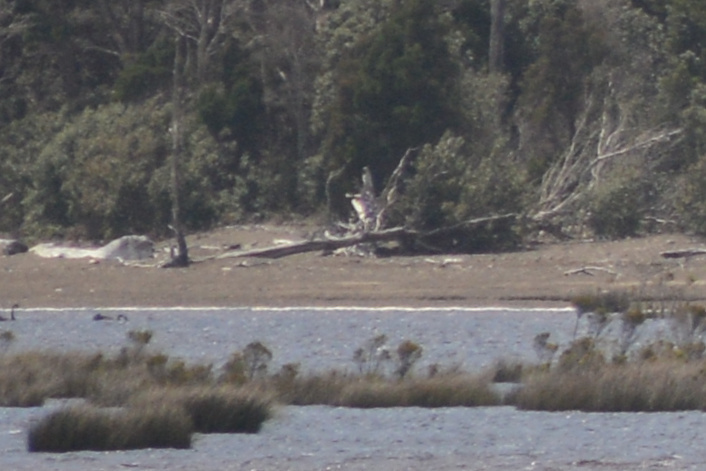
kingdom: Animalia
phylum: Chordata
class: Aves
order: Anseriformes
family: Anatidae
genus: Cygnus
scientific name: Cygnus atratus
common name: Black swan
